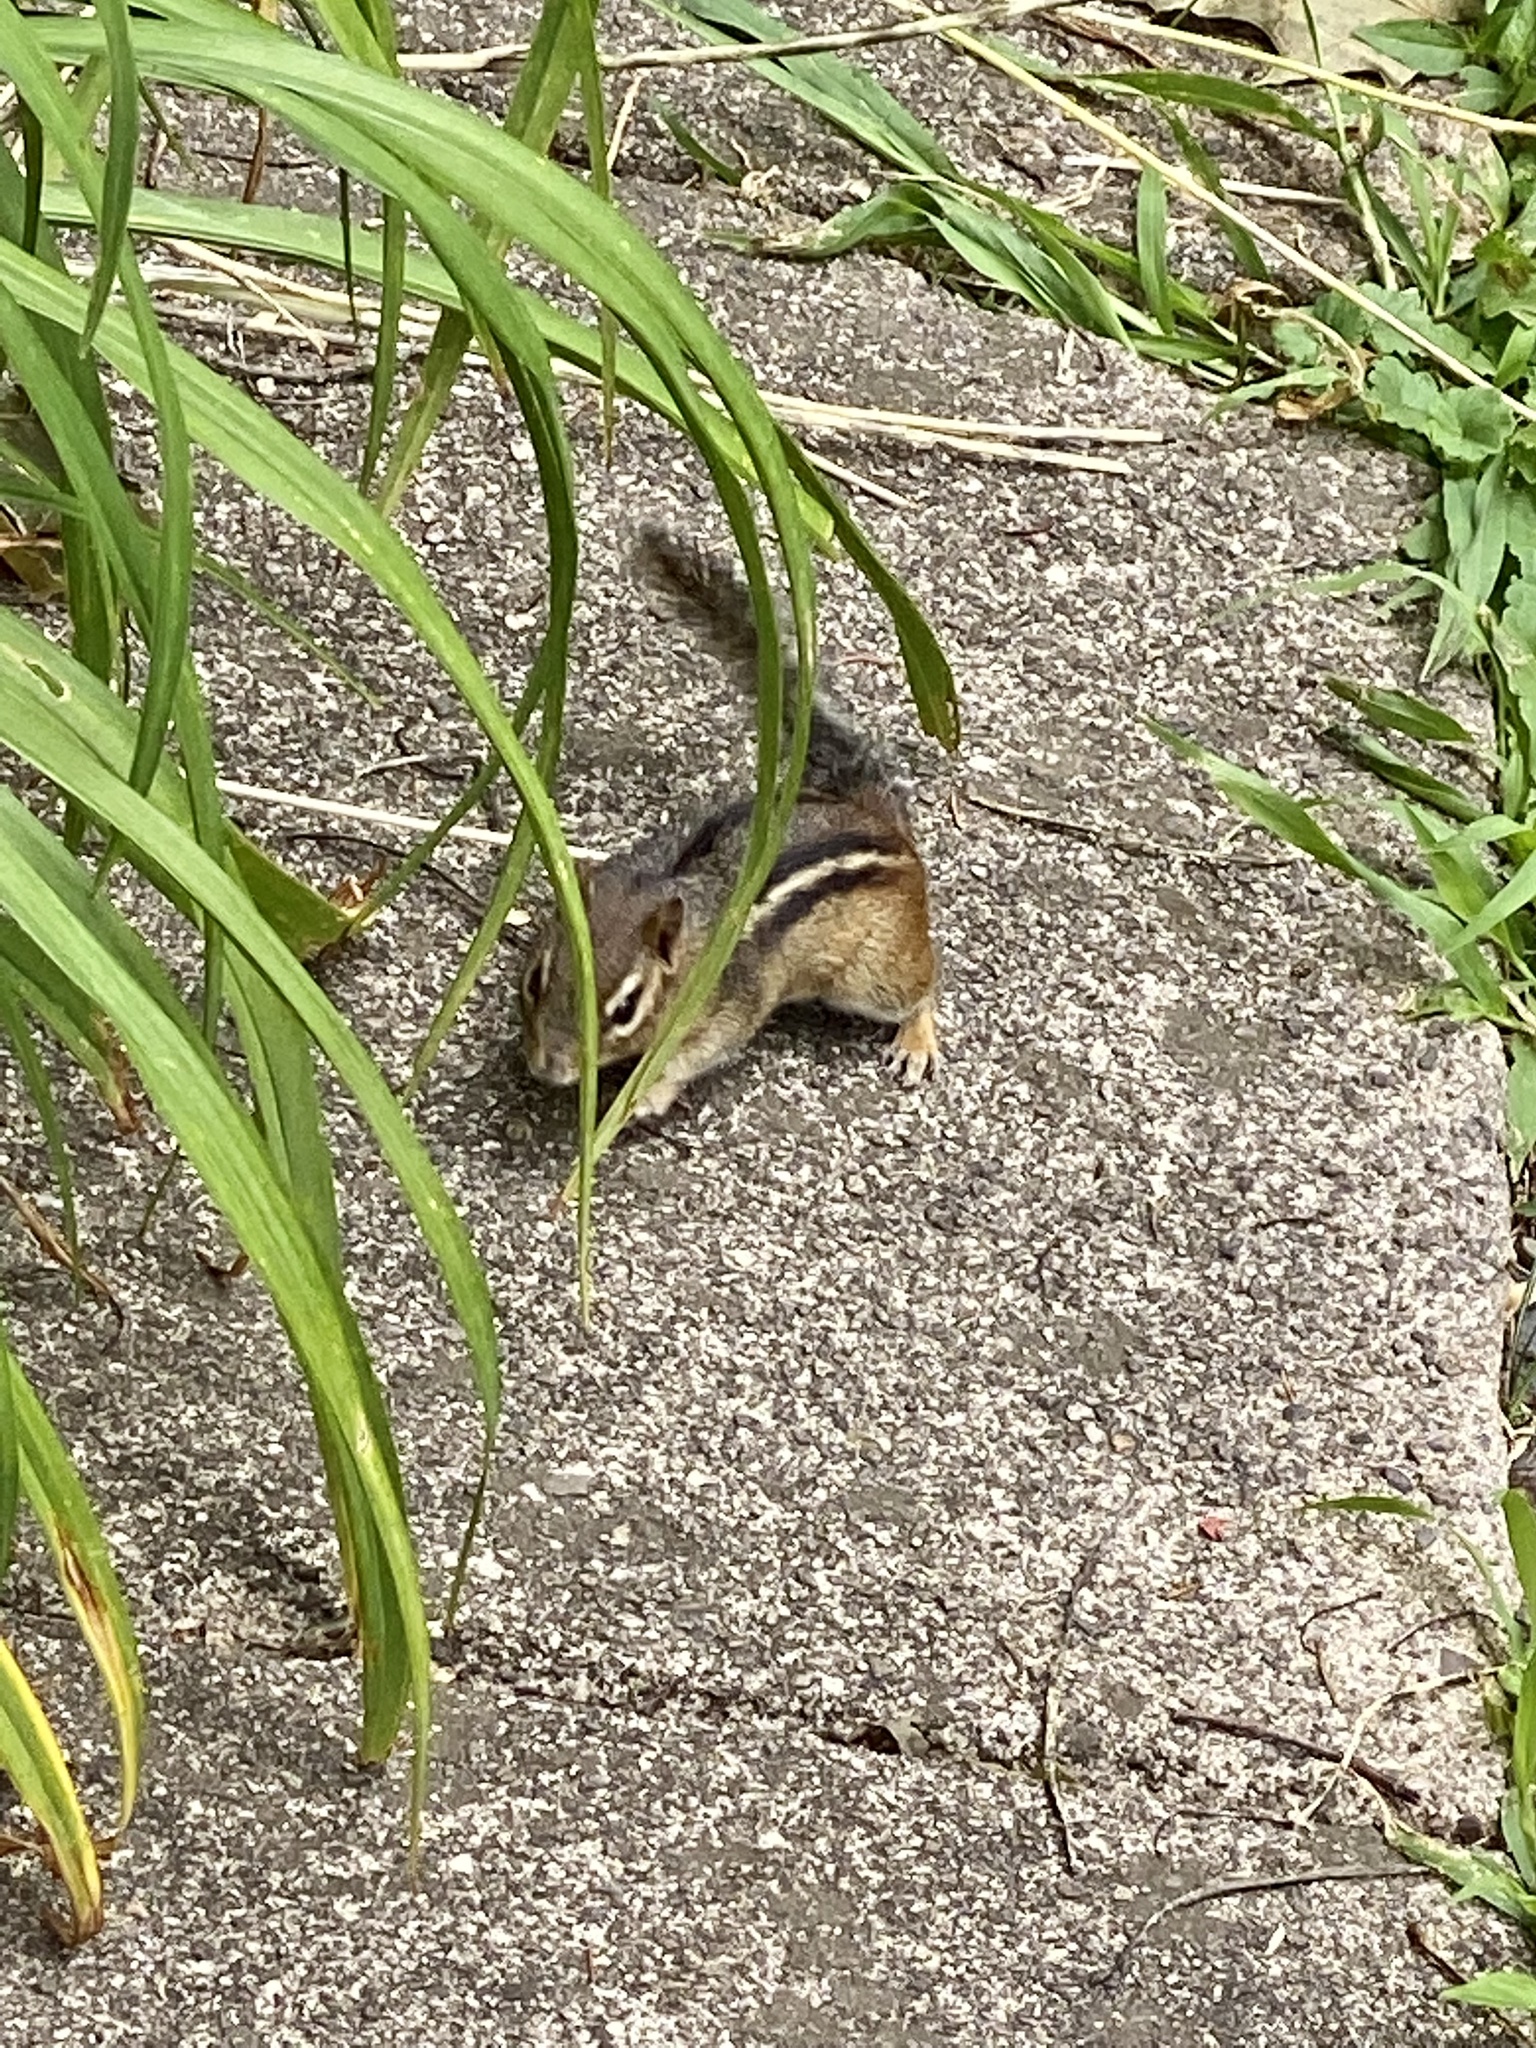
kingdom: Animalia
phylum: Chordata
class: Mammalia
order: Rodentia
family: Sciuridae
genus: Tamias
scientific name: Tamias striatus
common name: Eastern chipmunk
